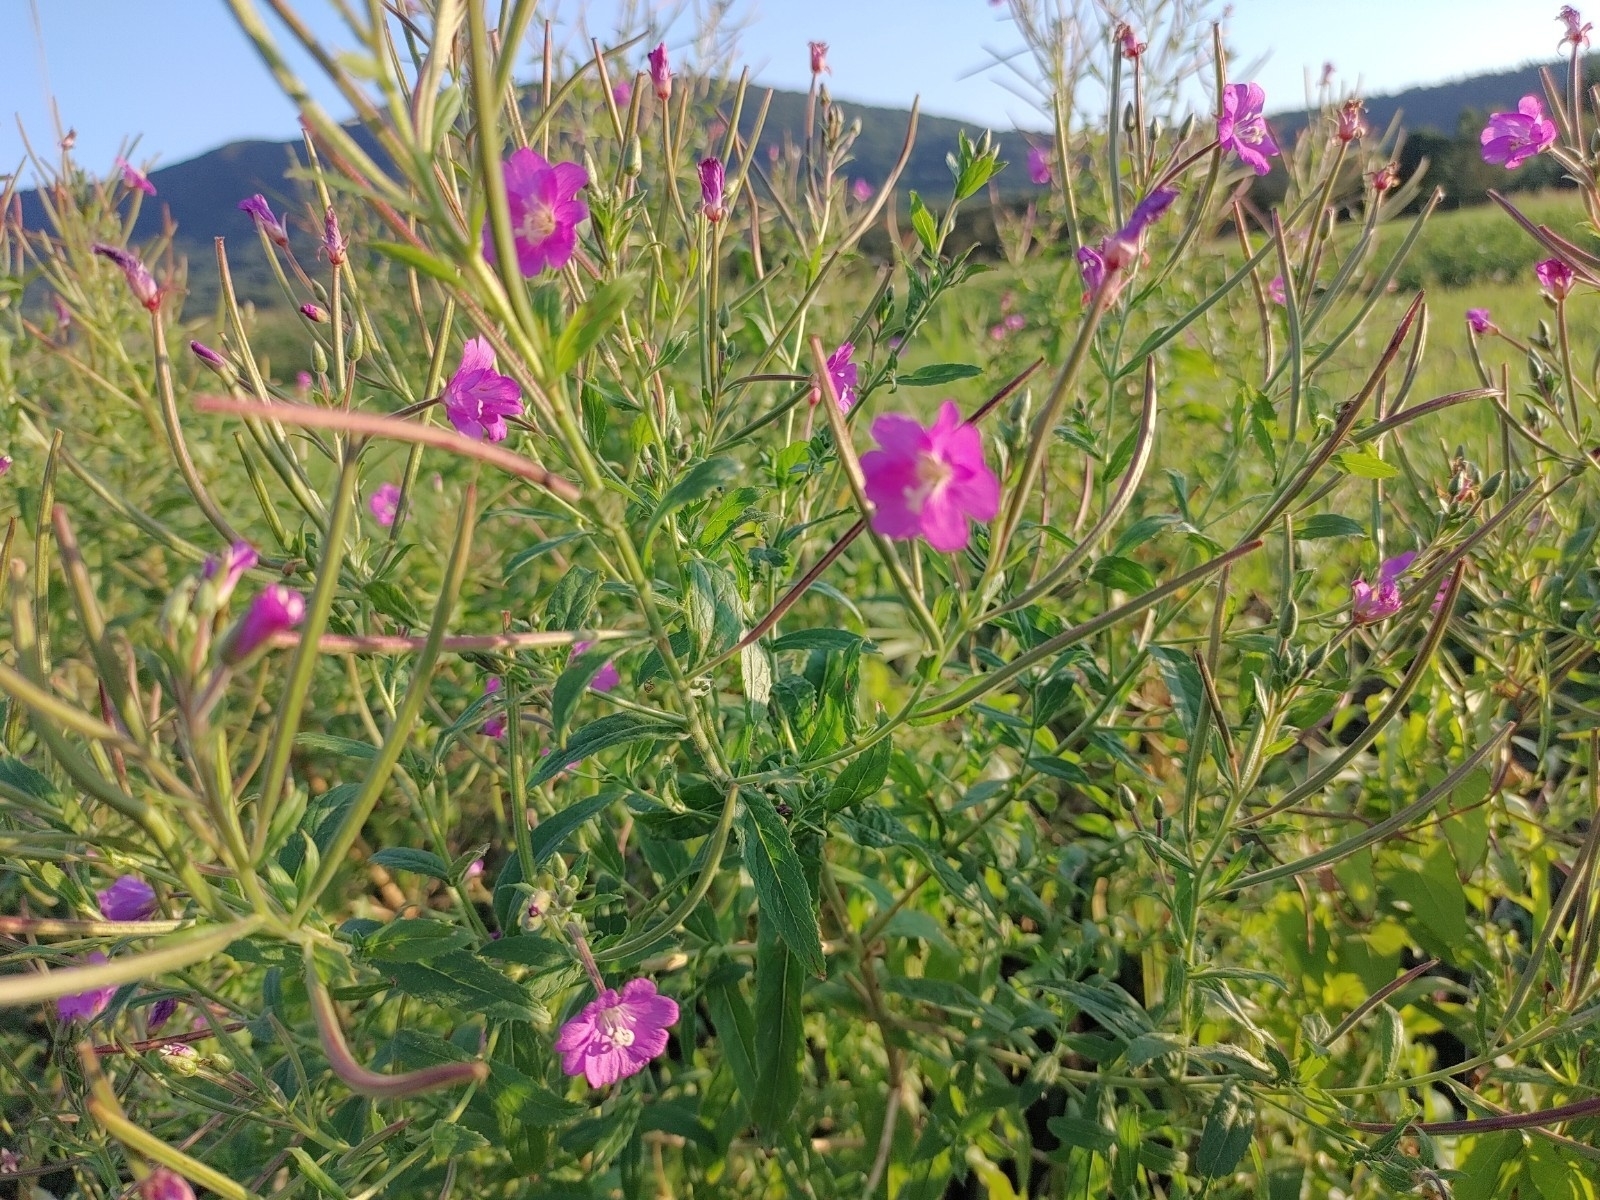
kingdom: Plantae
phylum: Tracheophyta
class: Magnoliopsida
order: Myrtales
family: Onagraceae
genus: Epilobium
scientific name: Epilobium hirsutum
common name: Great willowherb
